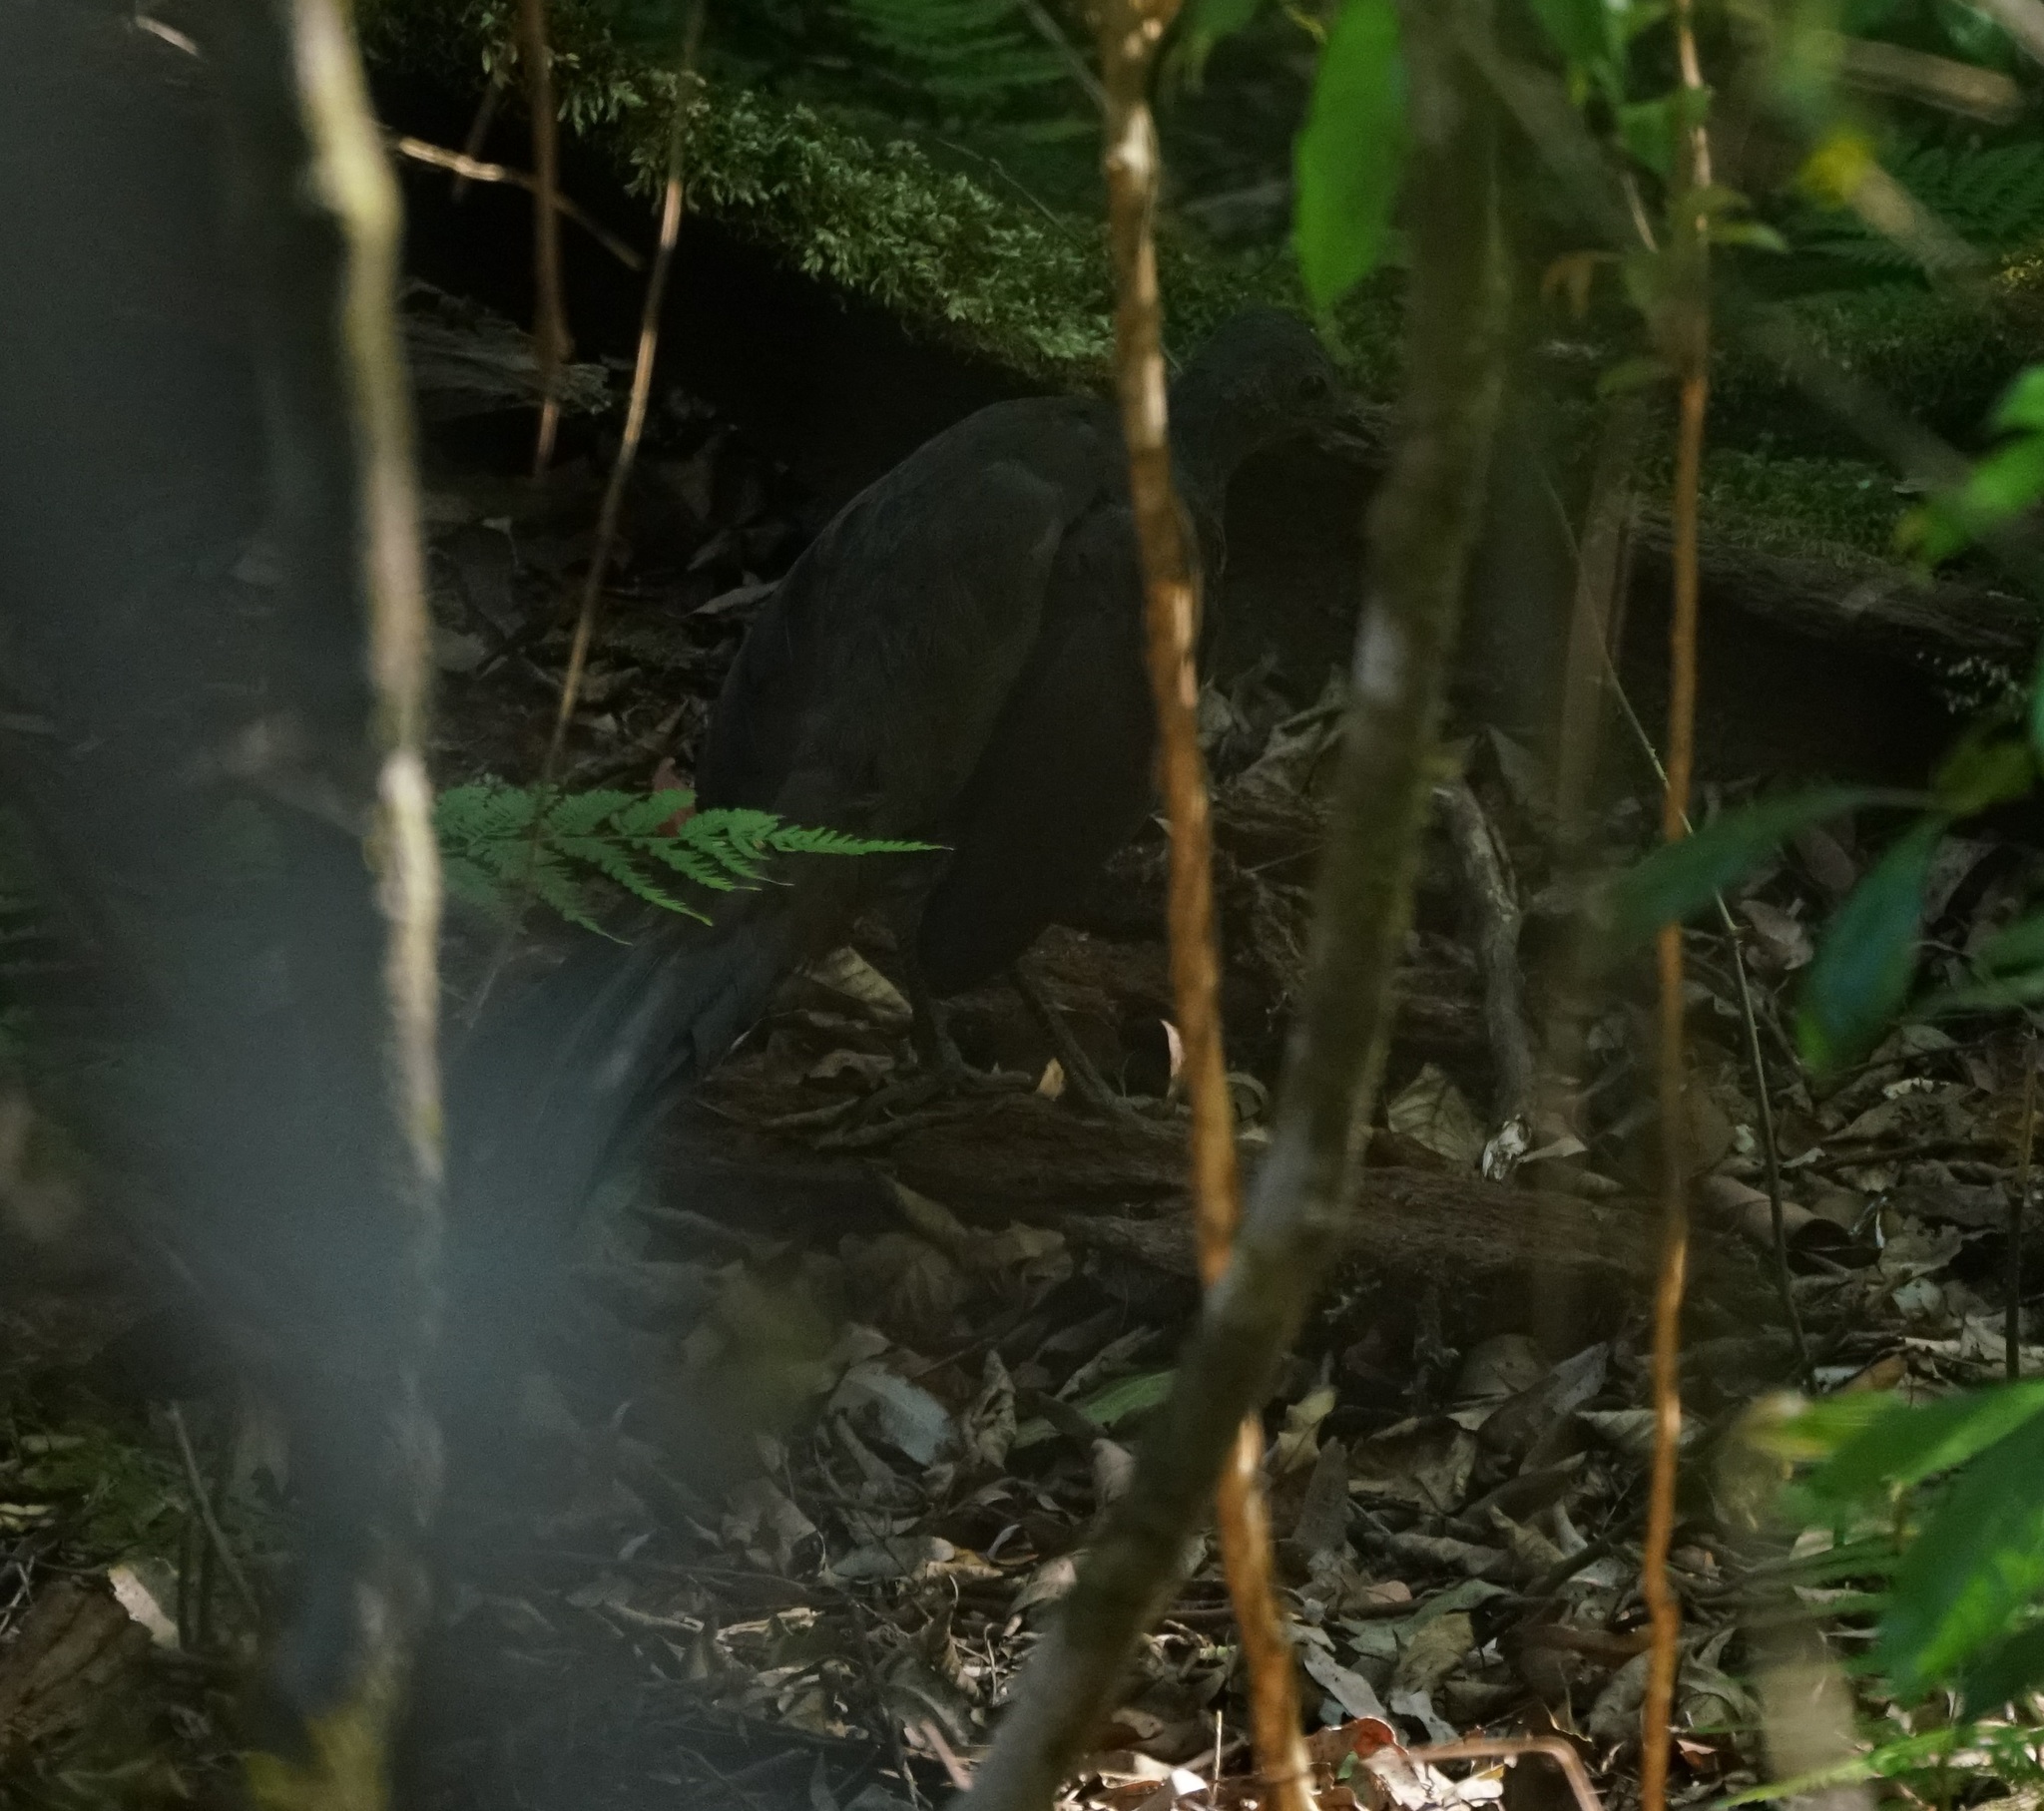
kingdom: Animalia
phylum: Chordata
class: Aves
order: Passeriformes
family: Menuridae
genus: Menura
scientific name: Menura novaehollandiae
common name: Superb lyrebird
